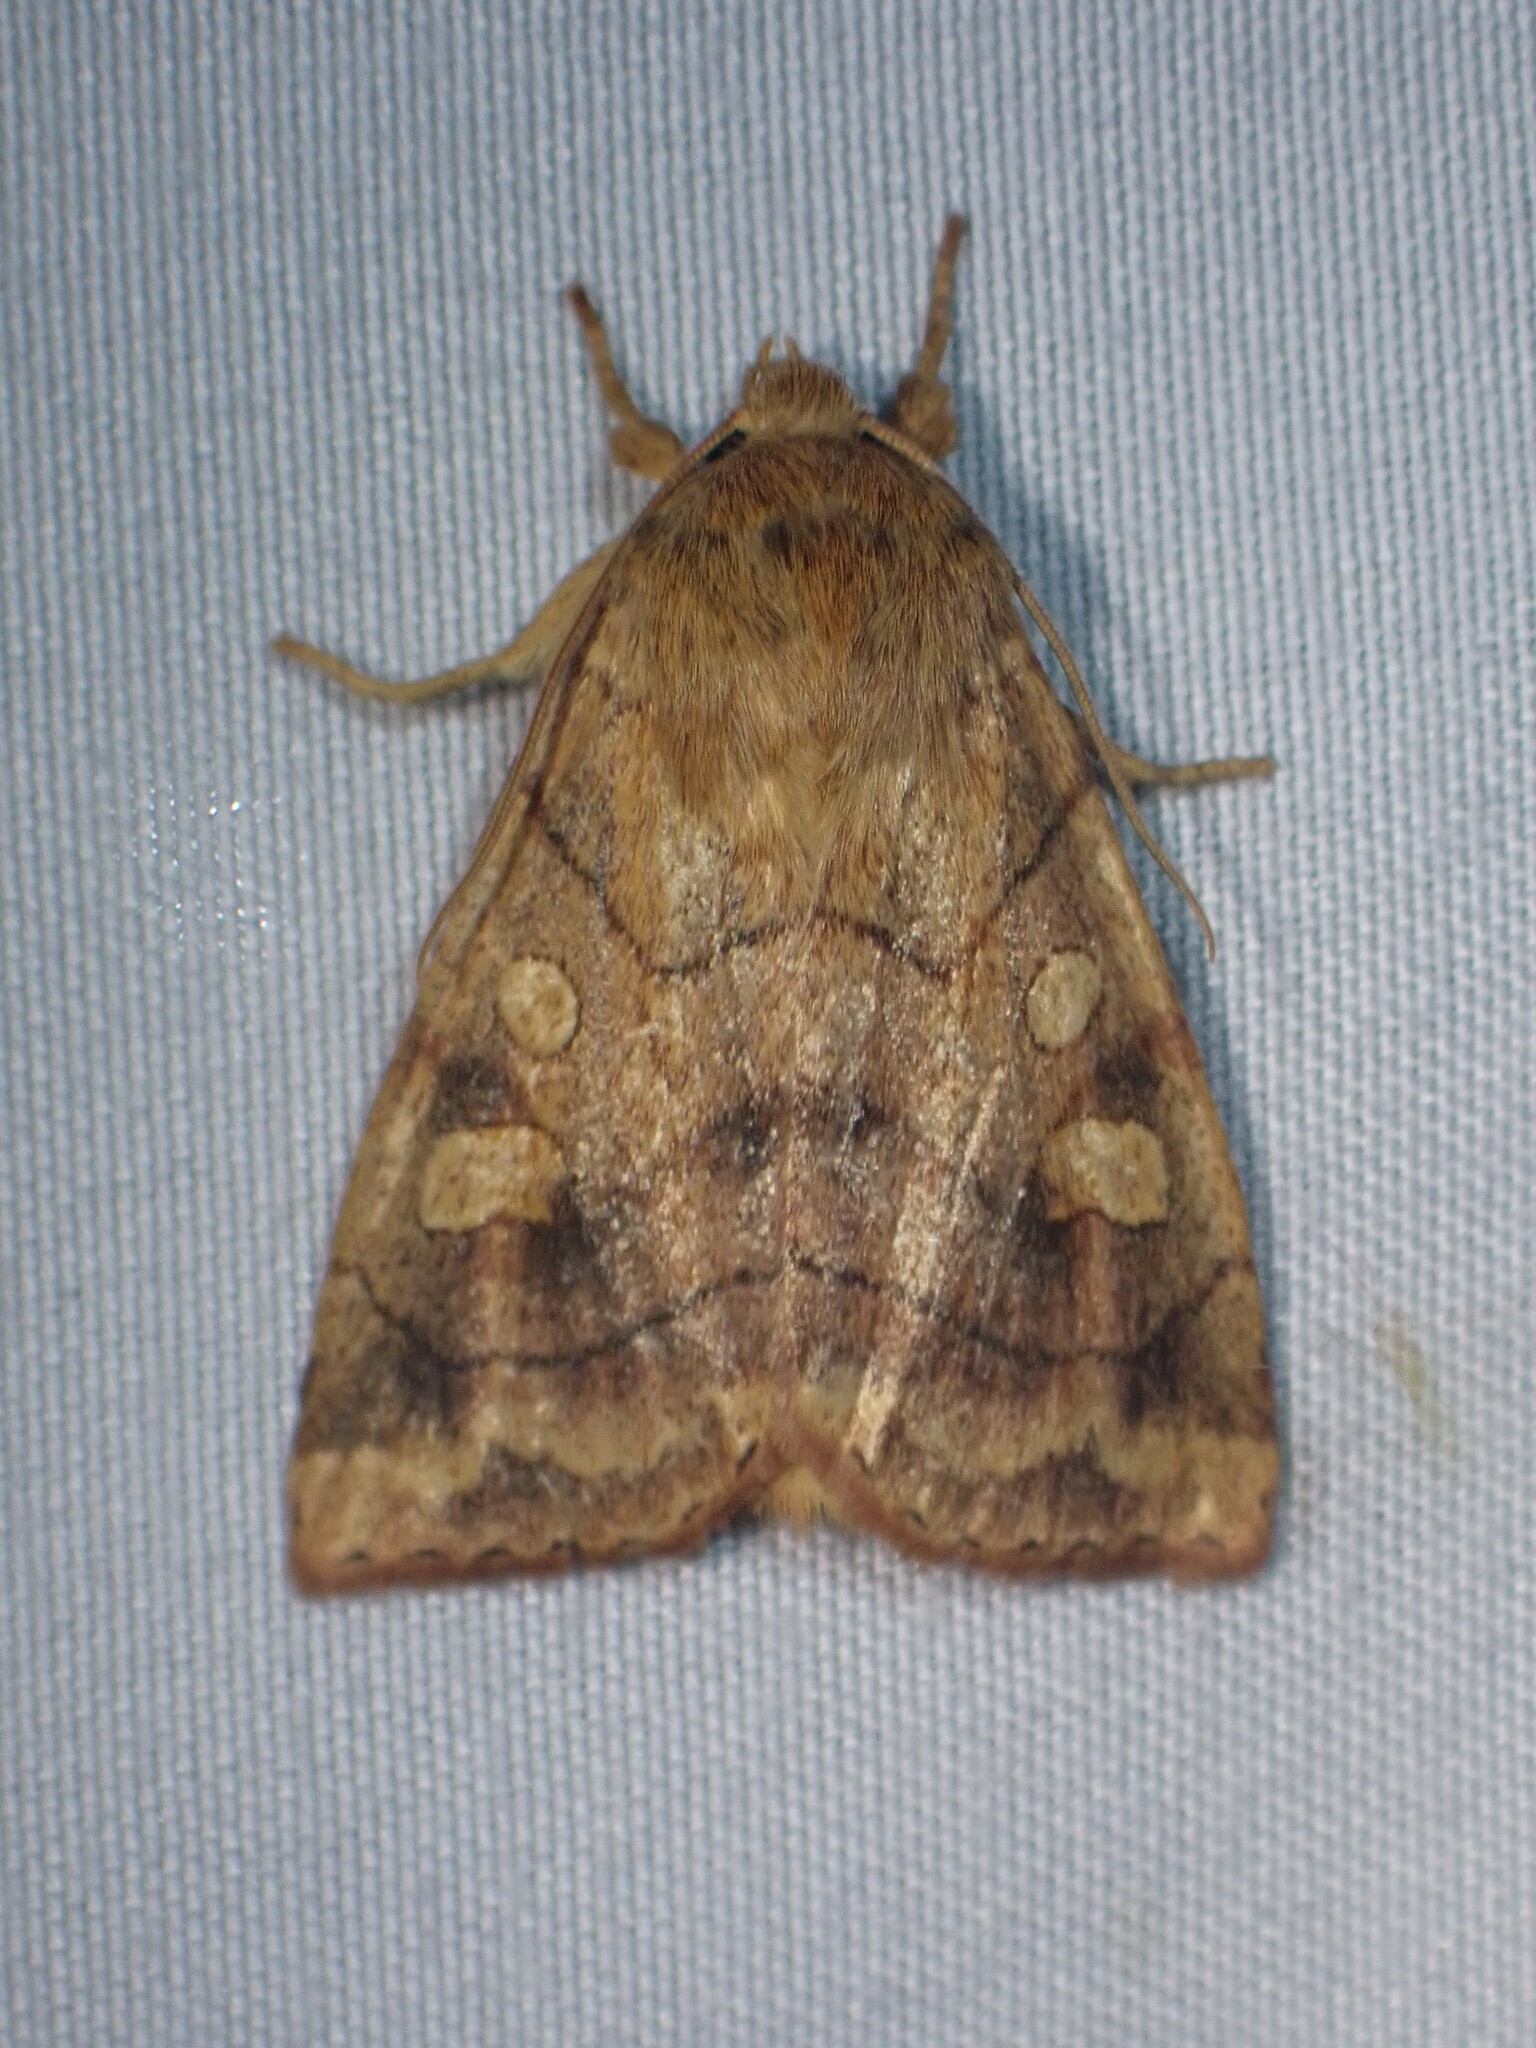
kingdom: Animalia
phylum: Arthropoda
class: Insecta
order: Lepidoptera
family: Noctuidae
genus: Enargia
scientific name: Enargia decolor
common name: Aspen twoleaf tier moth
